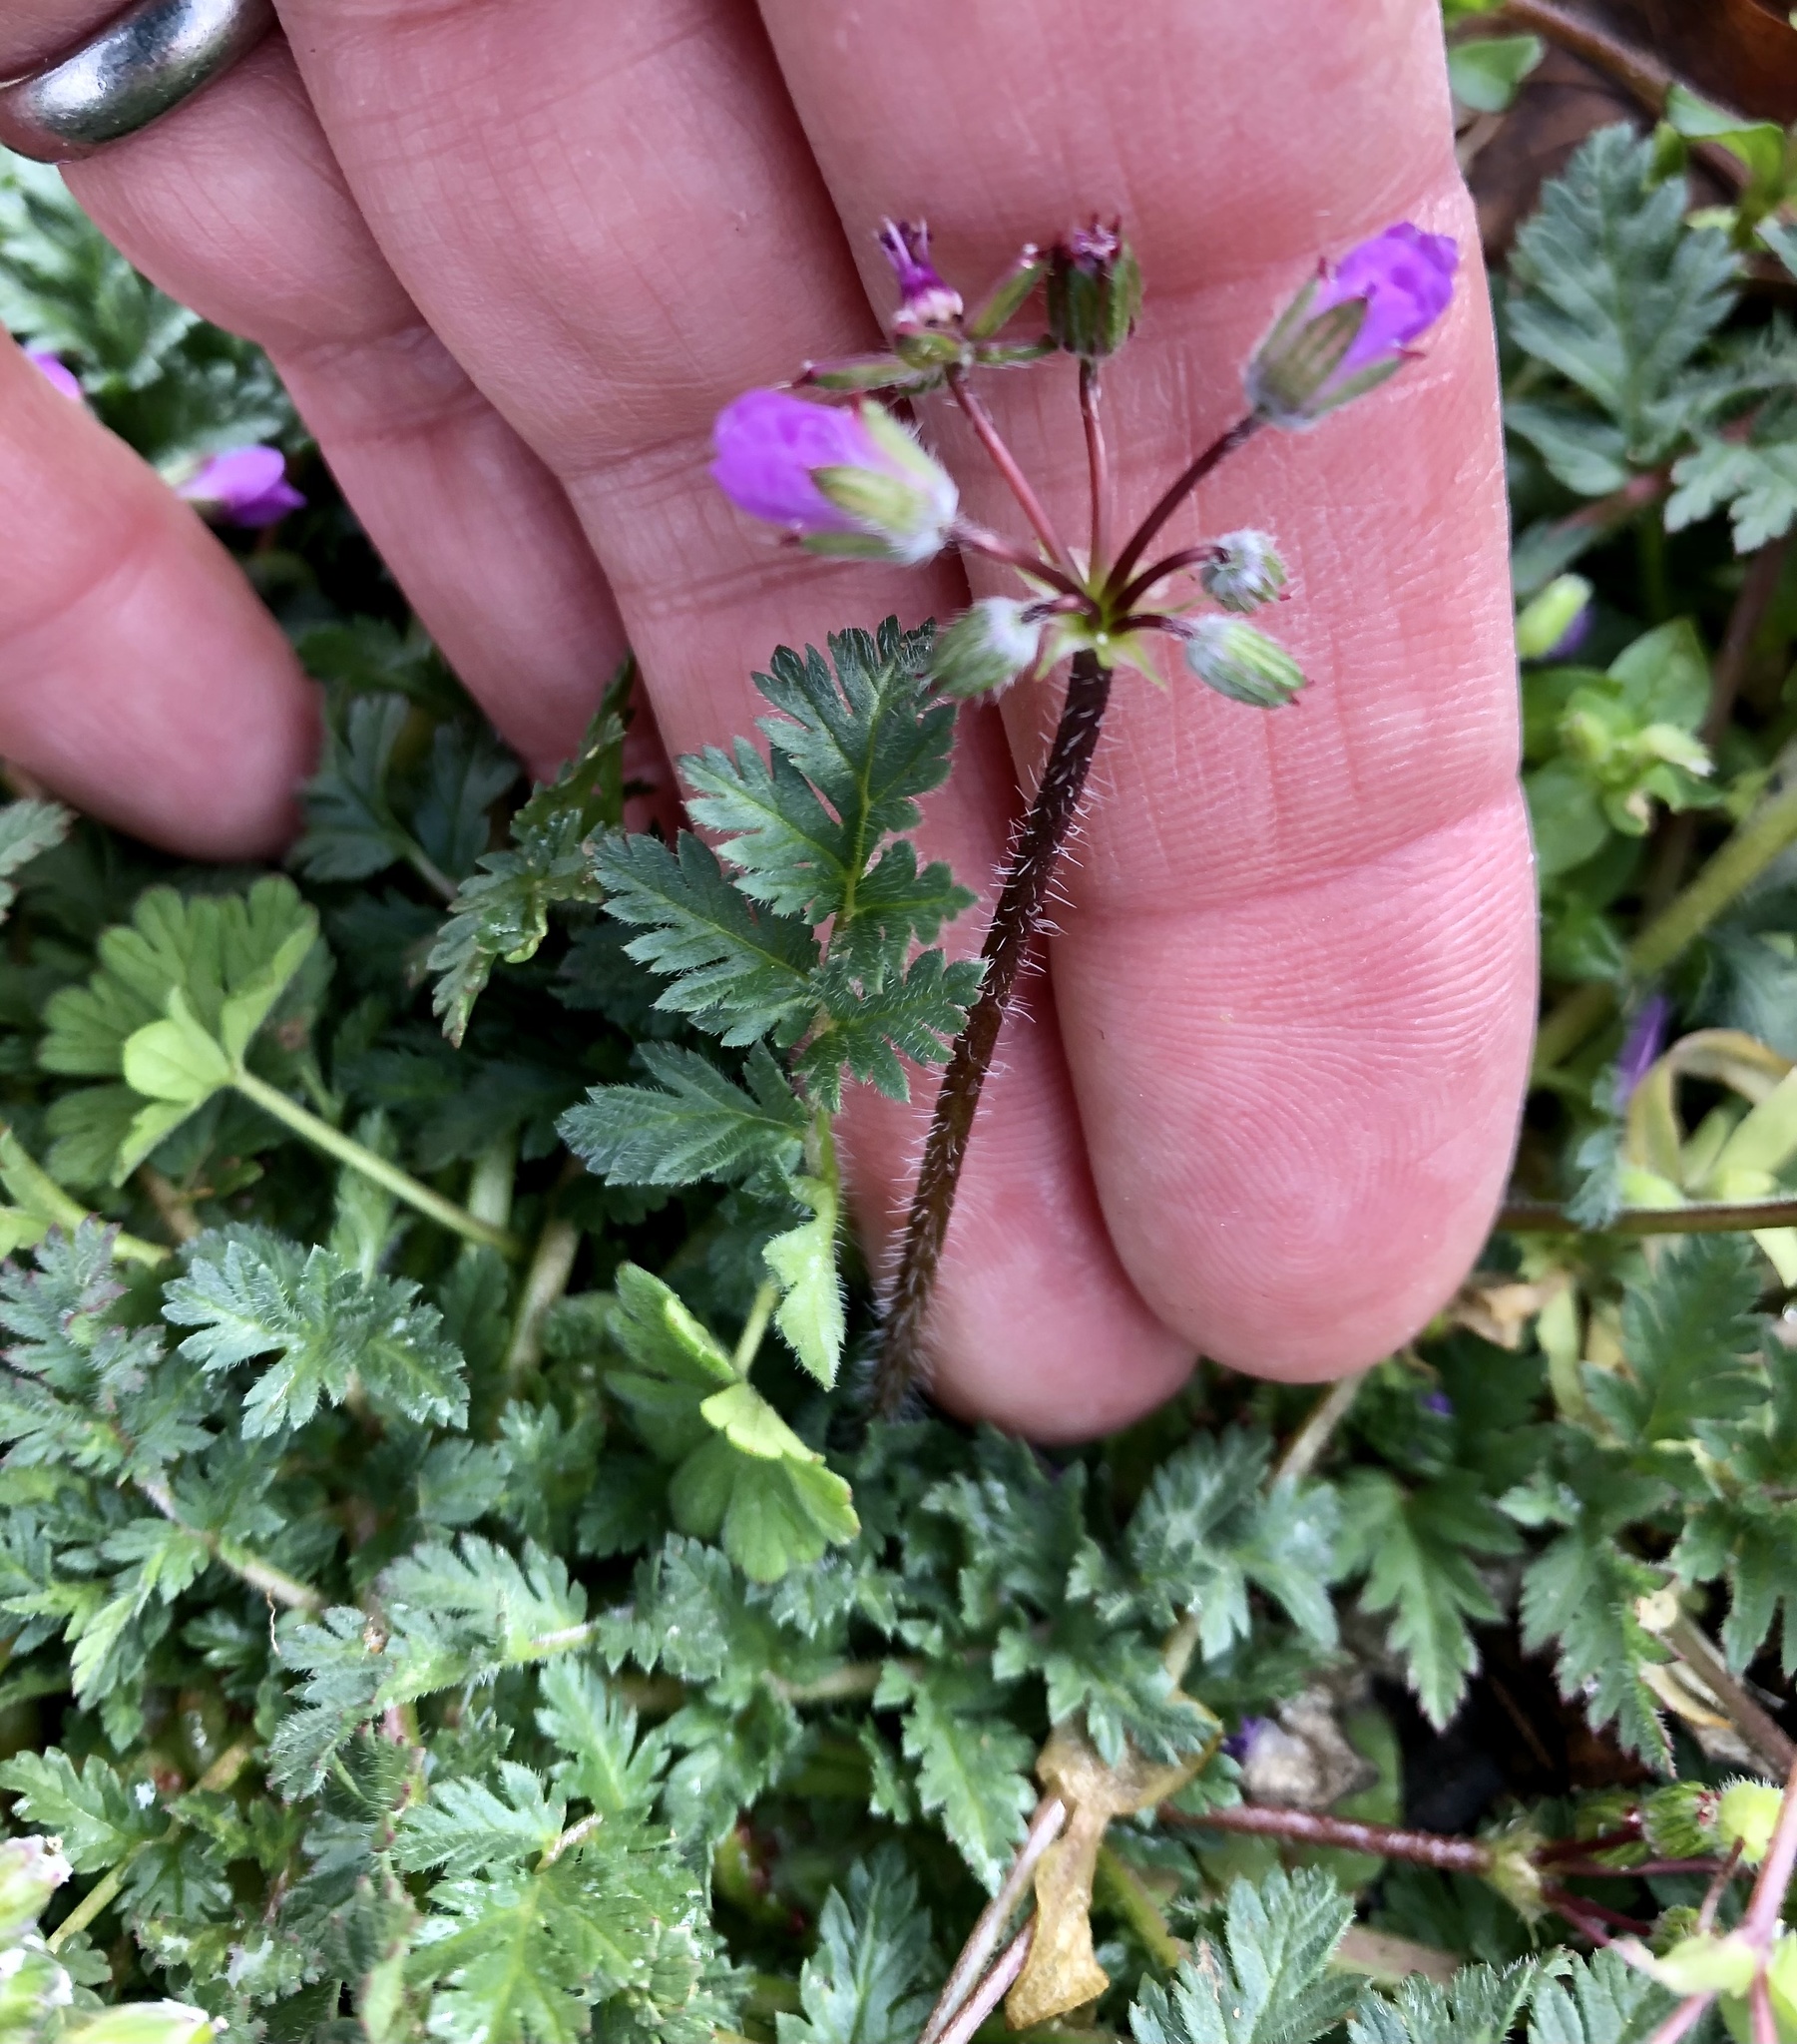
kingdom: Plantae
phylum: Tracheophyta
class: Magnoliopsida
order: Geraniales
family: Geraniaceae
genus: Erodium
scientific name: Erodium cicutarium
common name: Common stork's-bill
